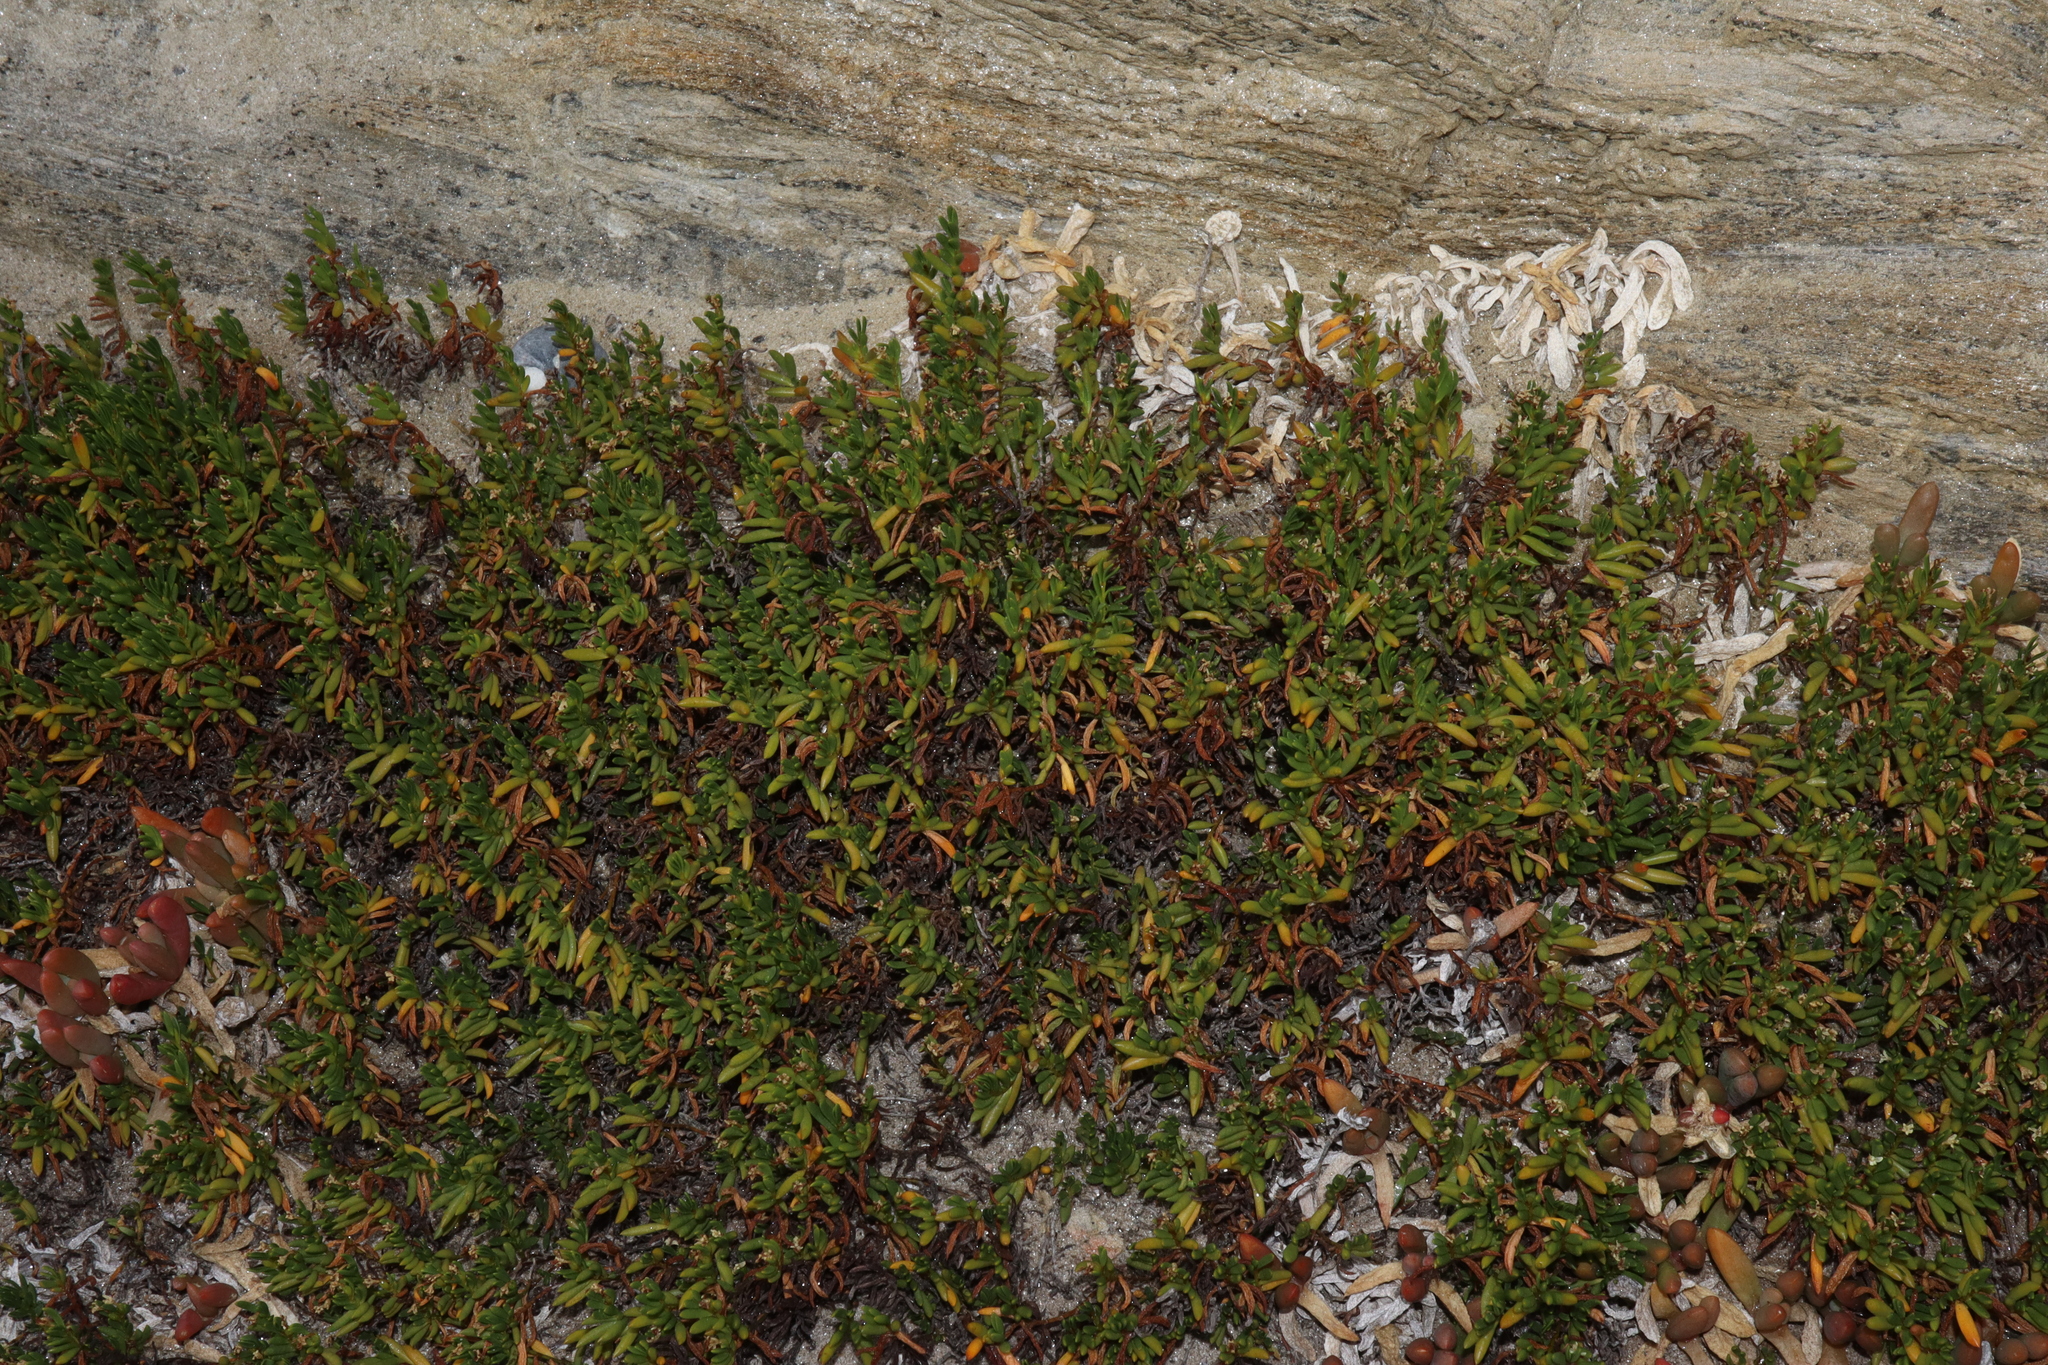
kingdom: Plantae
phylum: Tracheophyta
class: Magnoliopsida
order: Solanales
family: Convolvulaceae
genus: Wilsonia
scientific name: Wilsonia backhousei
